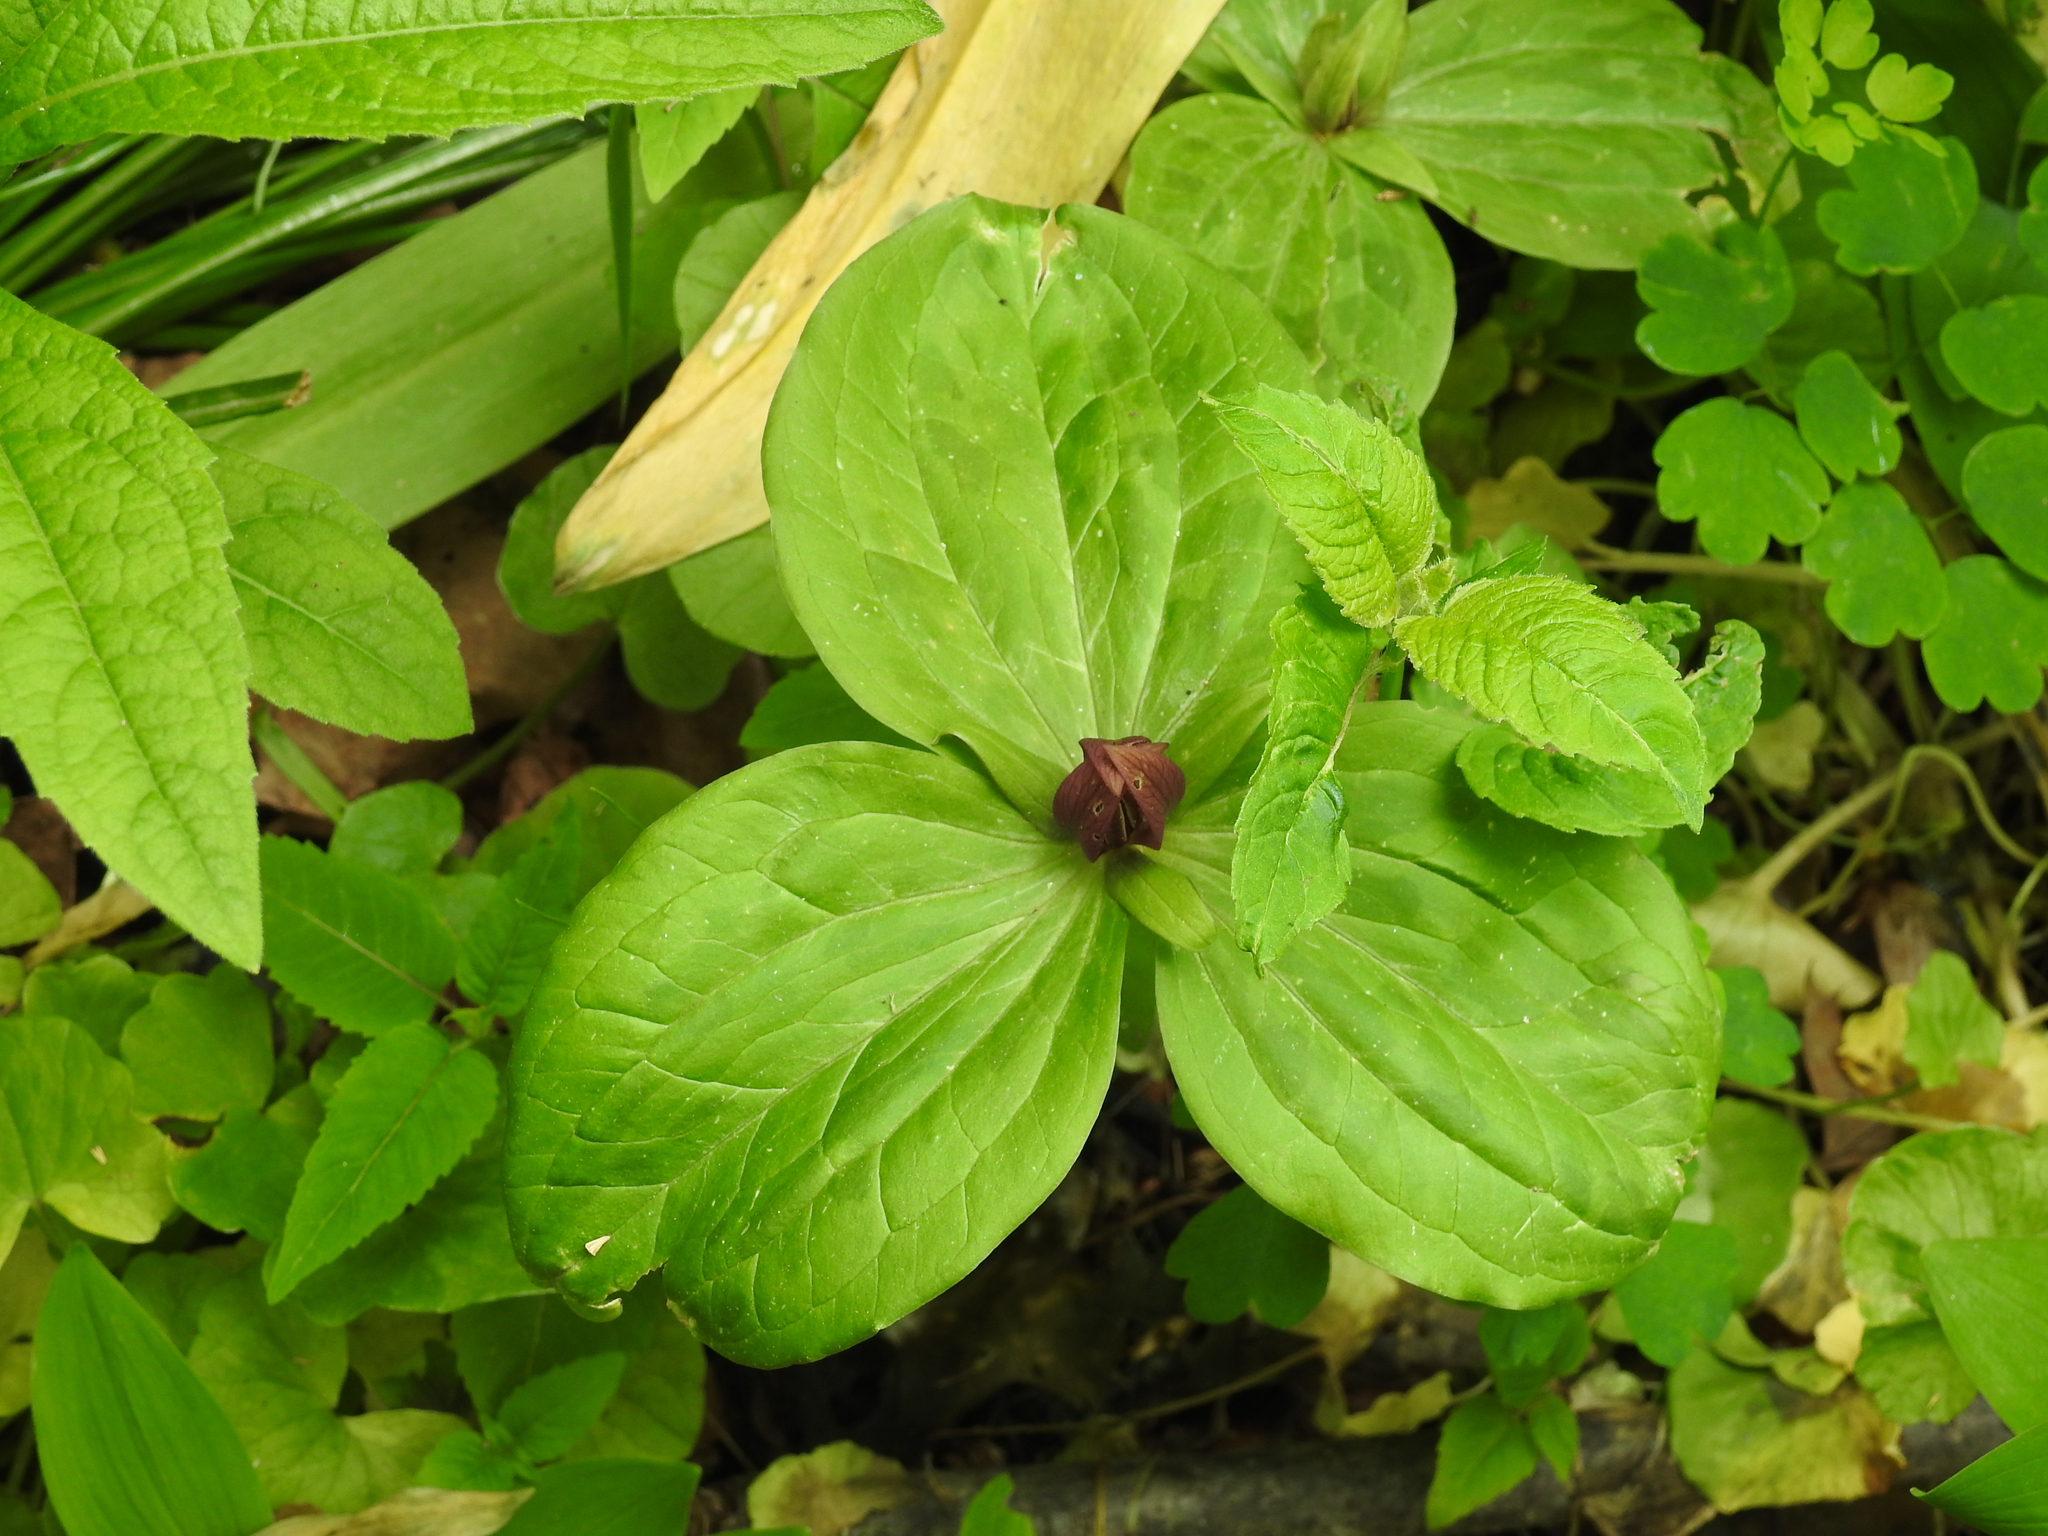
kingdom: Plantae
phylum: Tracheophyta
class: Liliopsida
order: Liliales
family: Melanthiaceae
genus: Trillium
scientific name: Trillium sessile
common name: Sessile trillium
